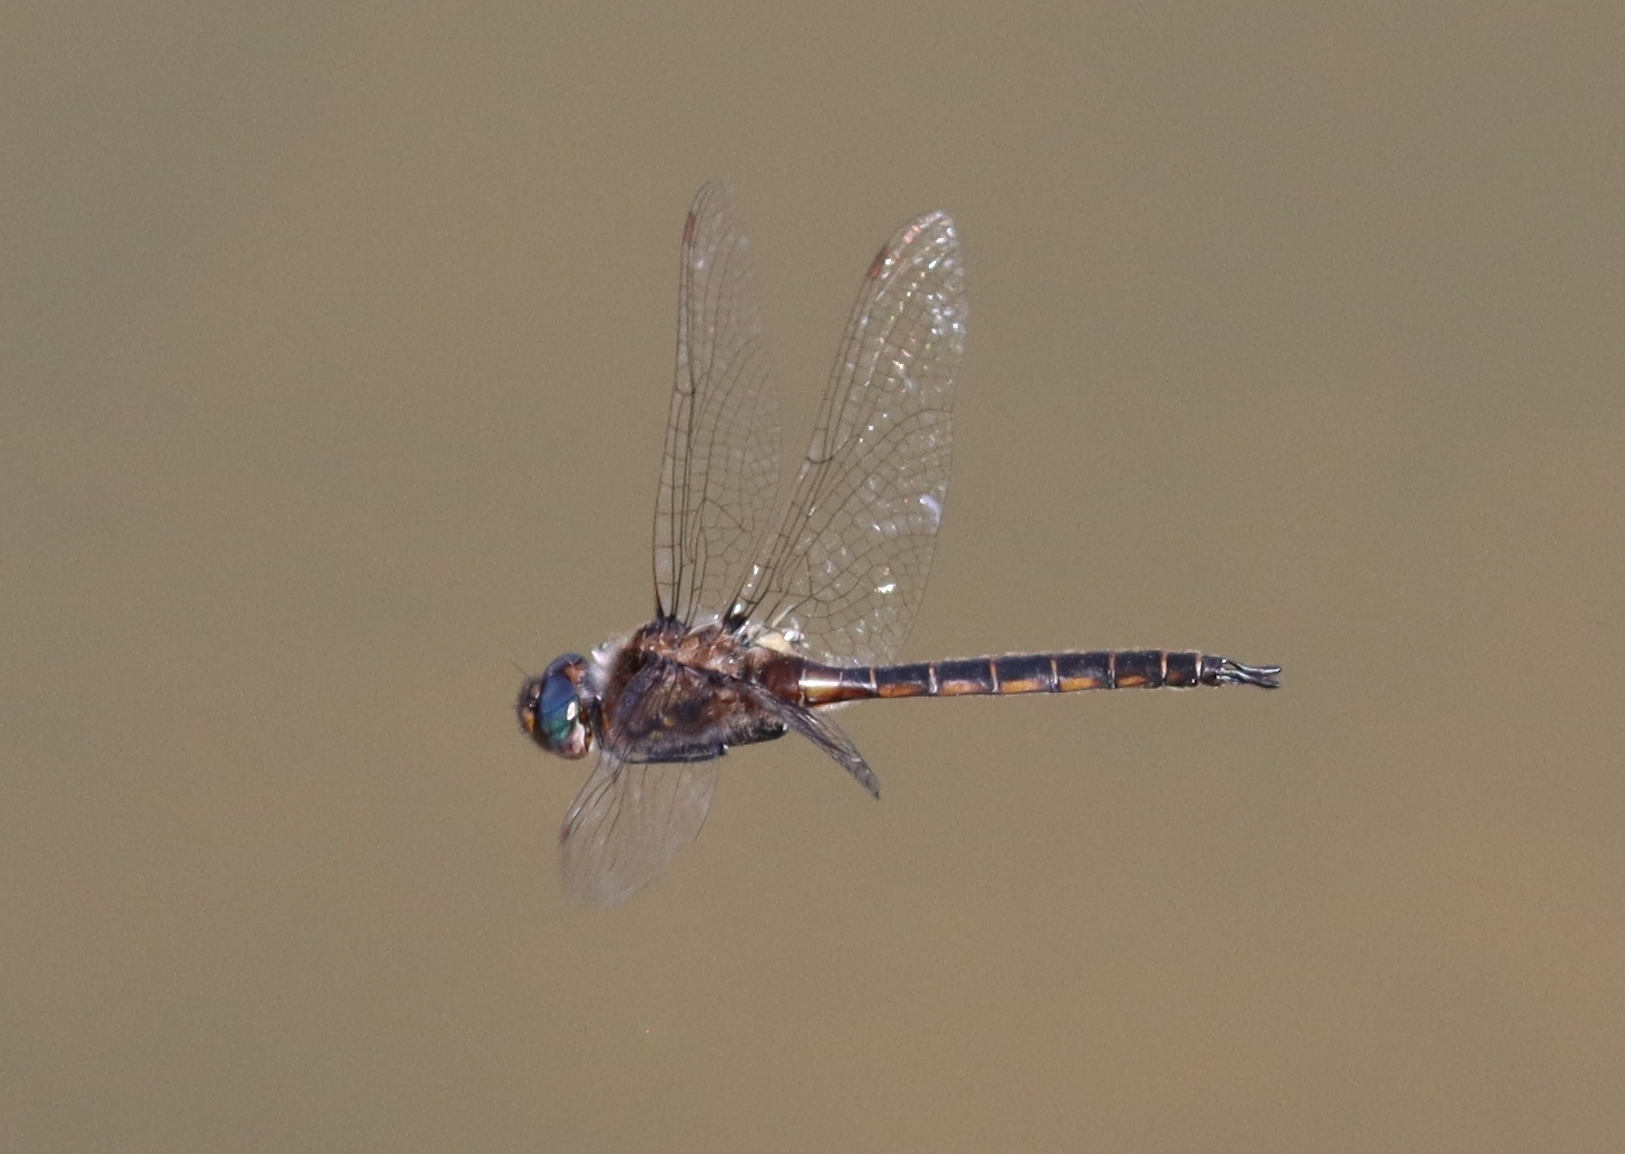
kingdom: Animalia
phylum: Arthropoda
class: Insecta
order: Odonata
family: Corduliidae
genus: Epitheca
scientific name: Epitheca cynosura
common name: Common baskettail
